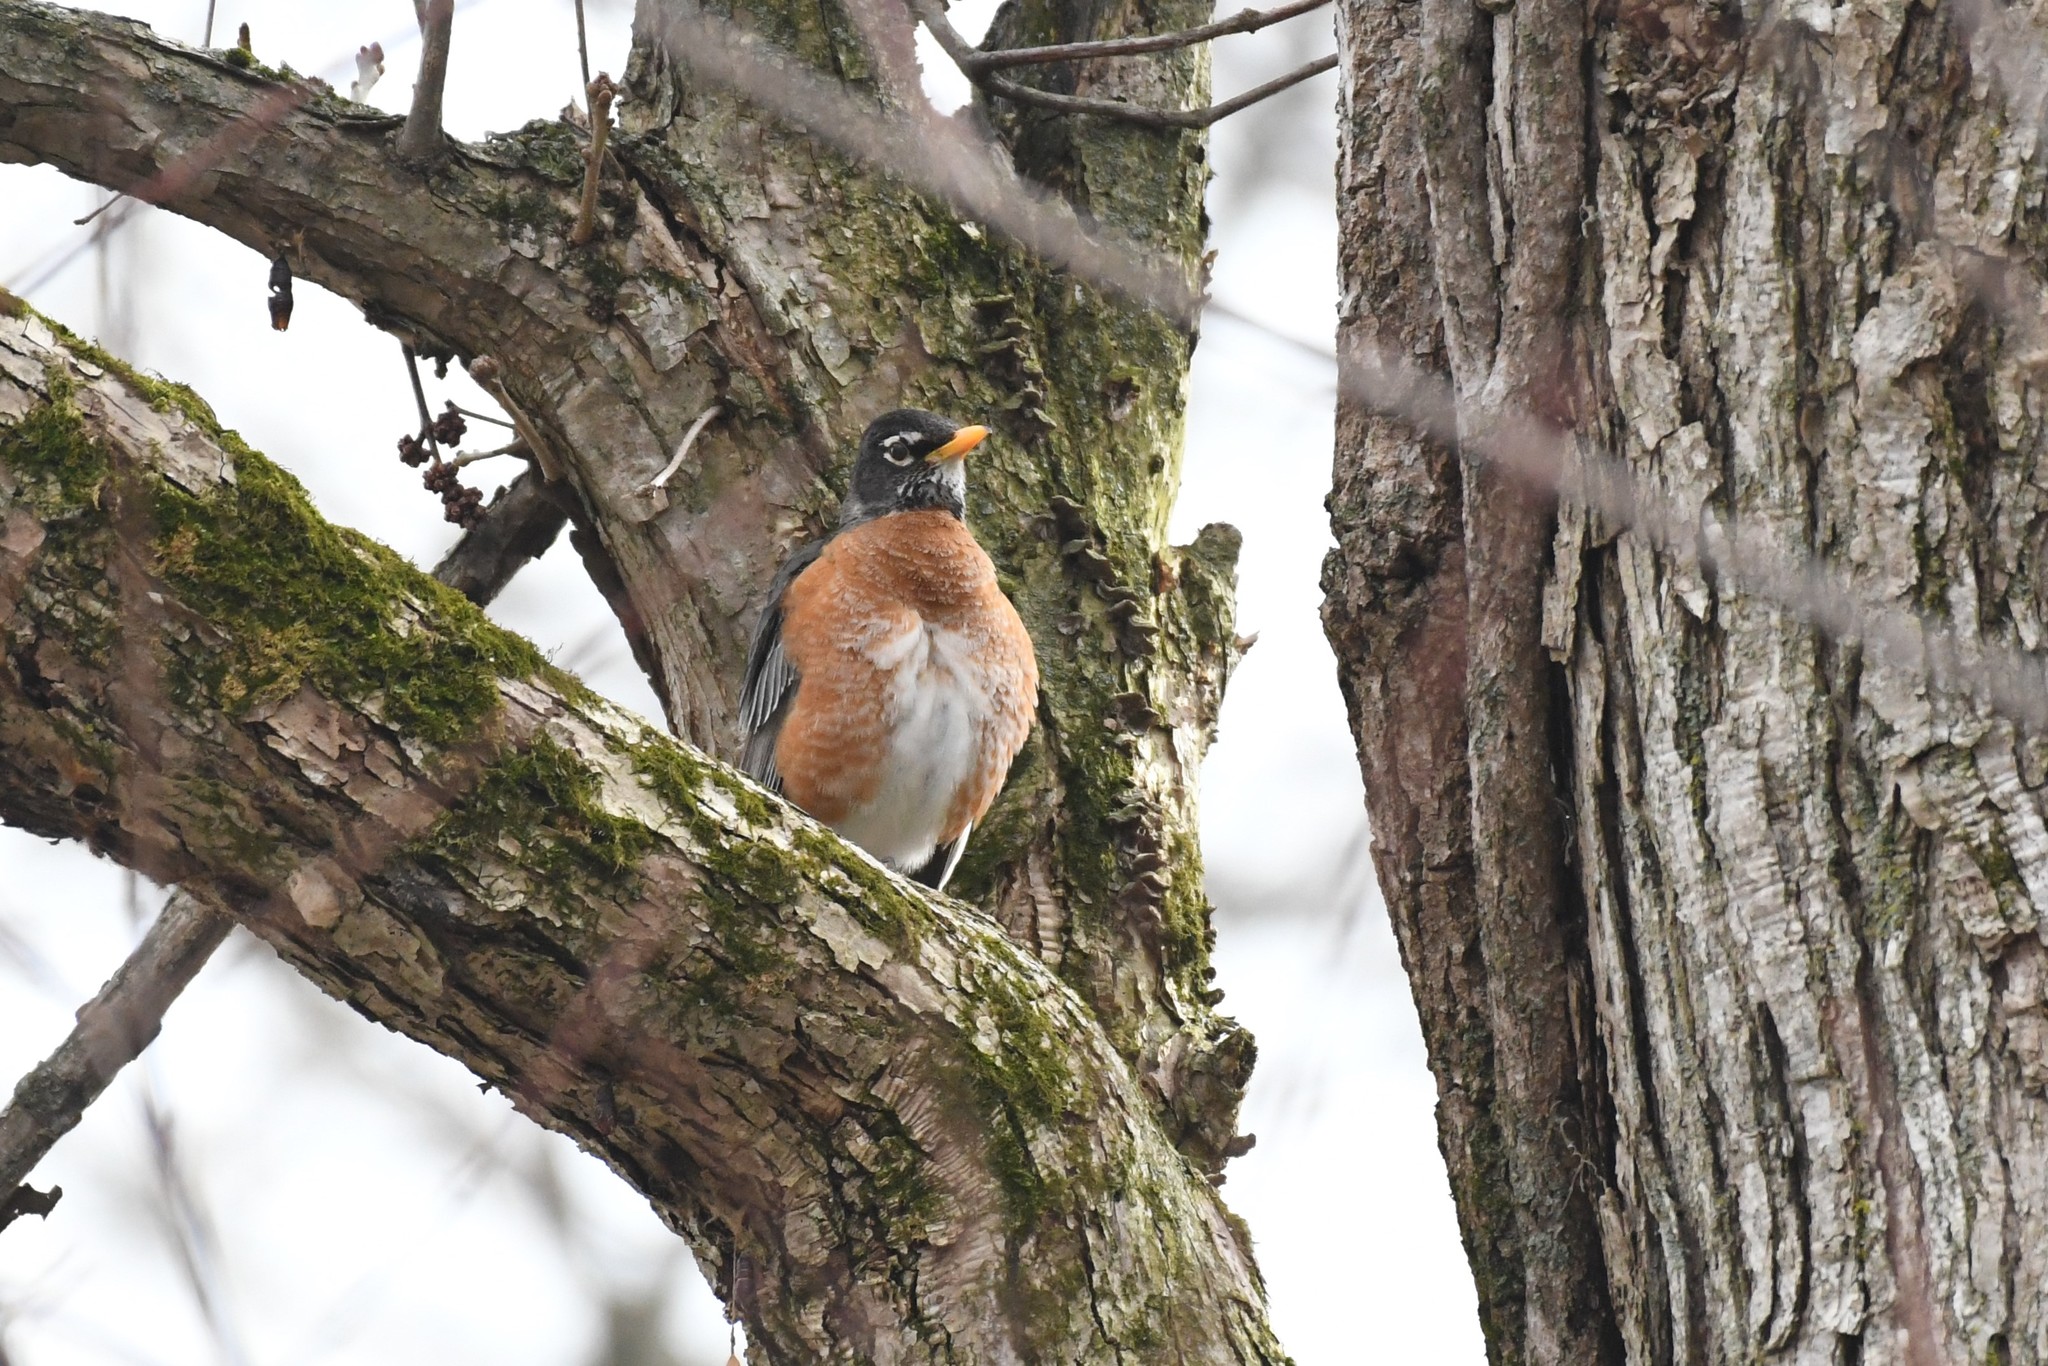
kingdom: Animalia
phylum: Chordata
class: Aves
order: Passeriformes
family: Turdidae
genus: Turdus
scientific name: Turdus migratorius
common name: American robin
